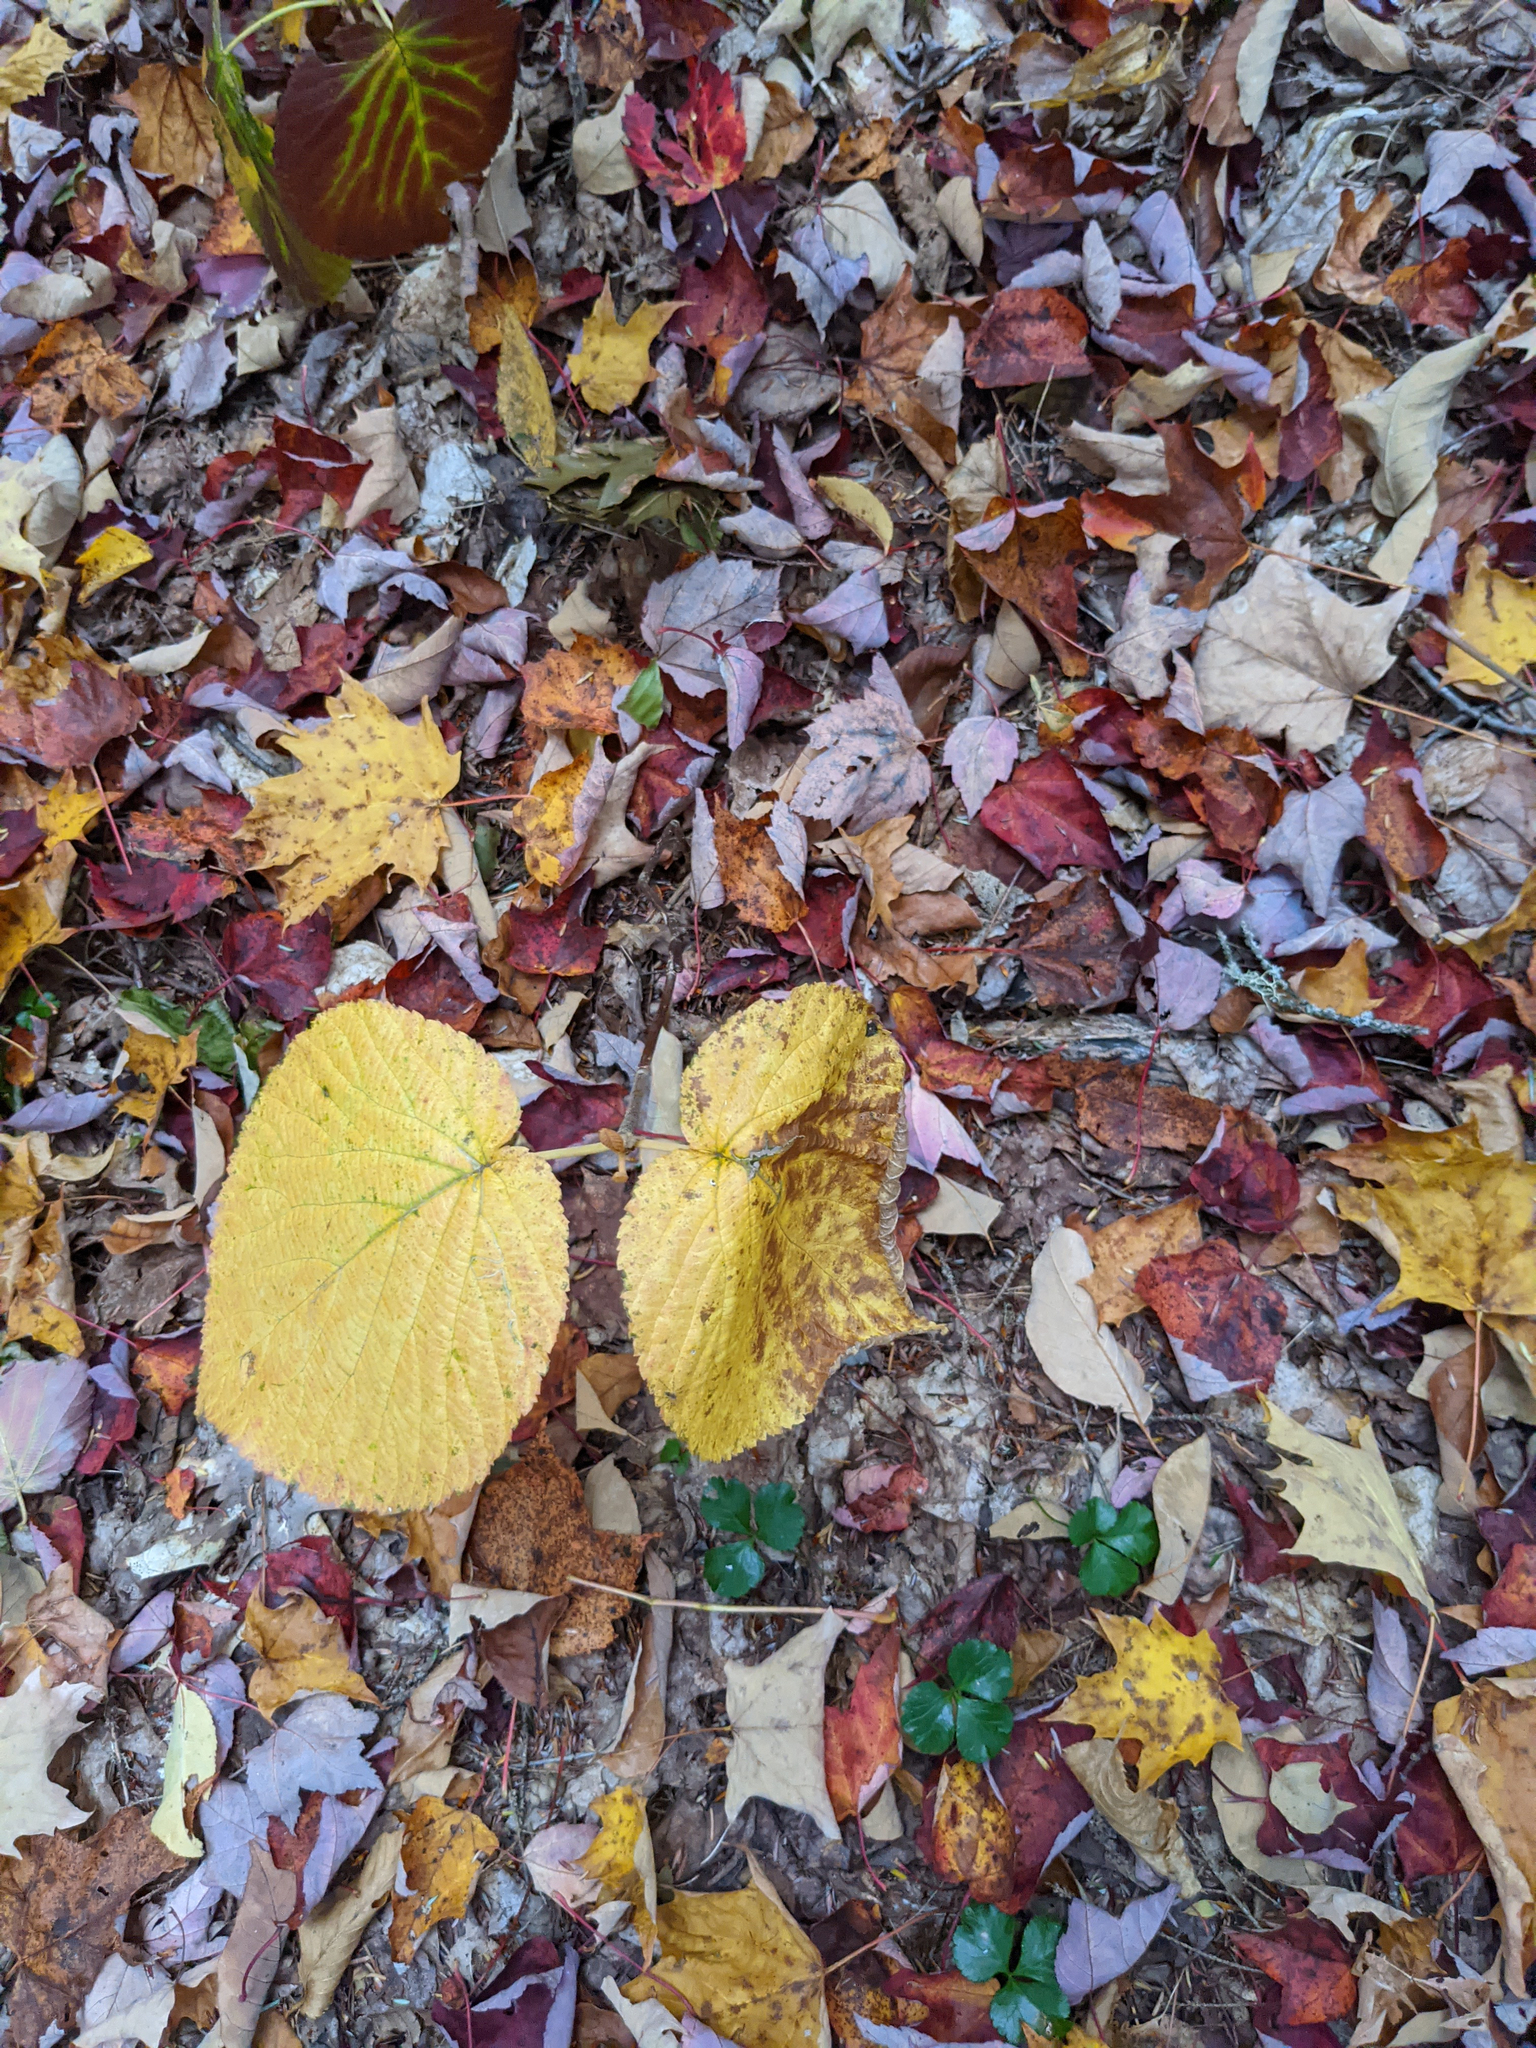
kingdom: Plantae
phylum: Tracheophyta
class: Magnoliopsida
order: Sapindales
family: Sapindaceae
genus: Acer
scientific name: Acer pensylvanicum
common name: Moosewood
